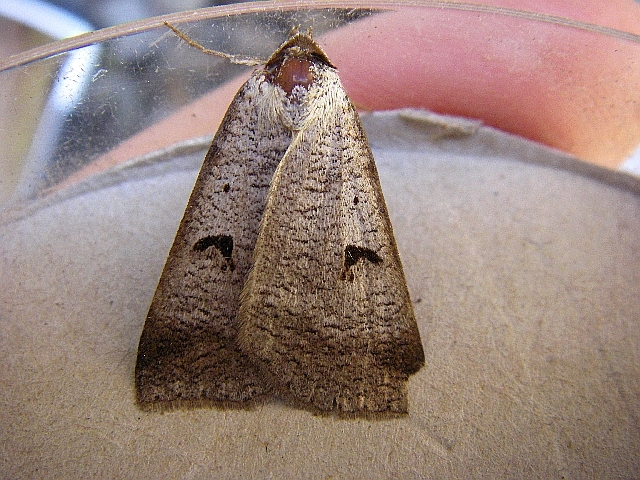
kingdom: Animalia
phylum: Arthropoda
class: Insecta
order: Lepidoptera
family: Erebidae
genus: Lygephila
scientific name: Lygephila pastinum
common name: Blackneck
